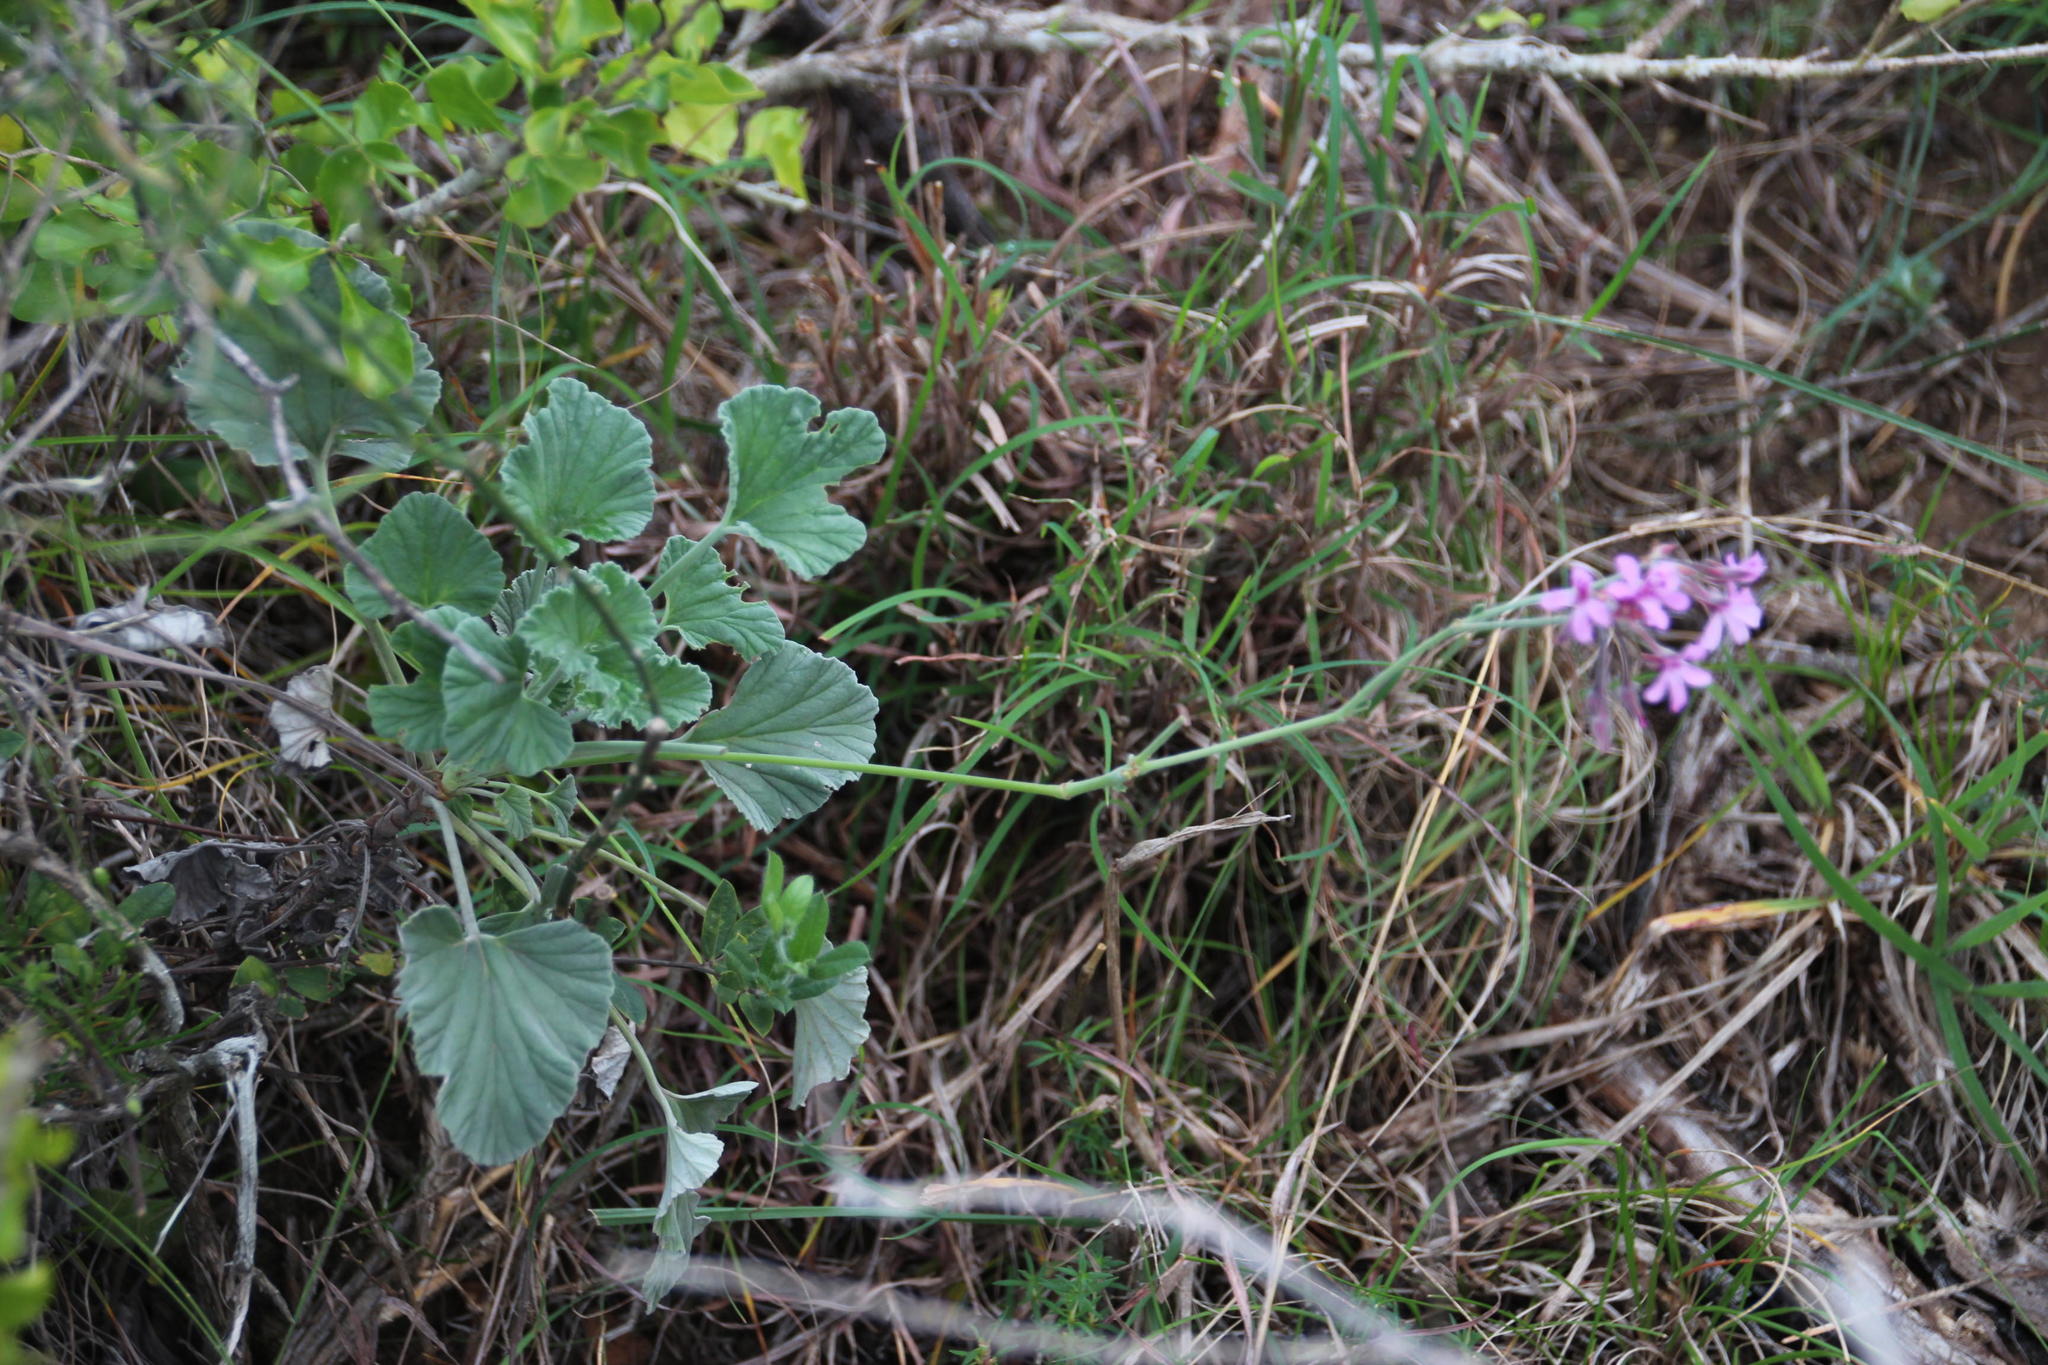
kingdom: Plantae
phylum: Tracheophyta
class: Magnoliopsida
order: Geraniales
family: Geraniaceae
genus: Pelargonium
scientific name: Pelargonium reniforme
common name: Kidney-leaf pelargonium
